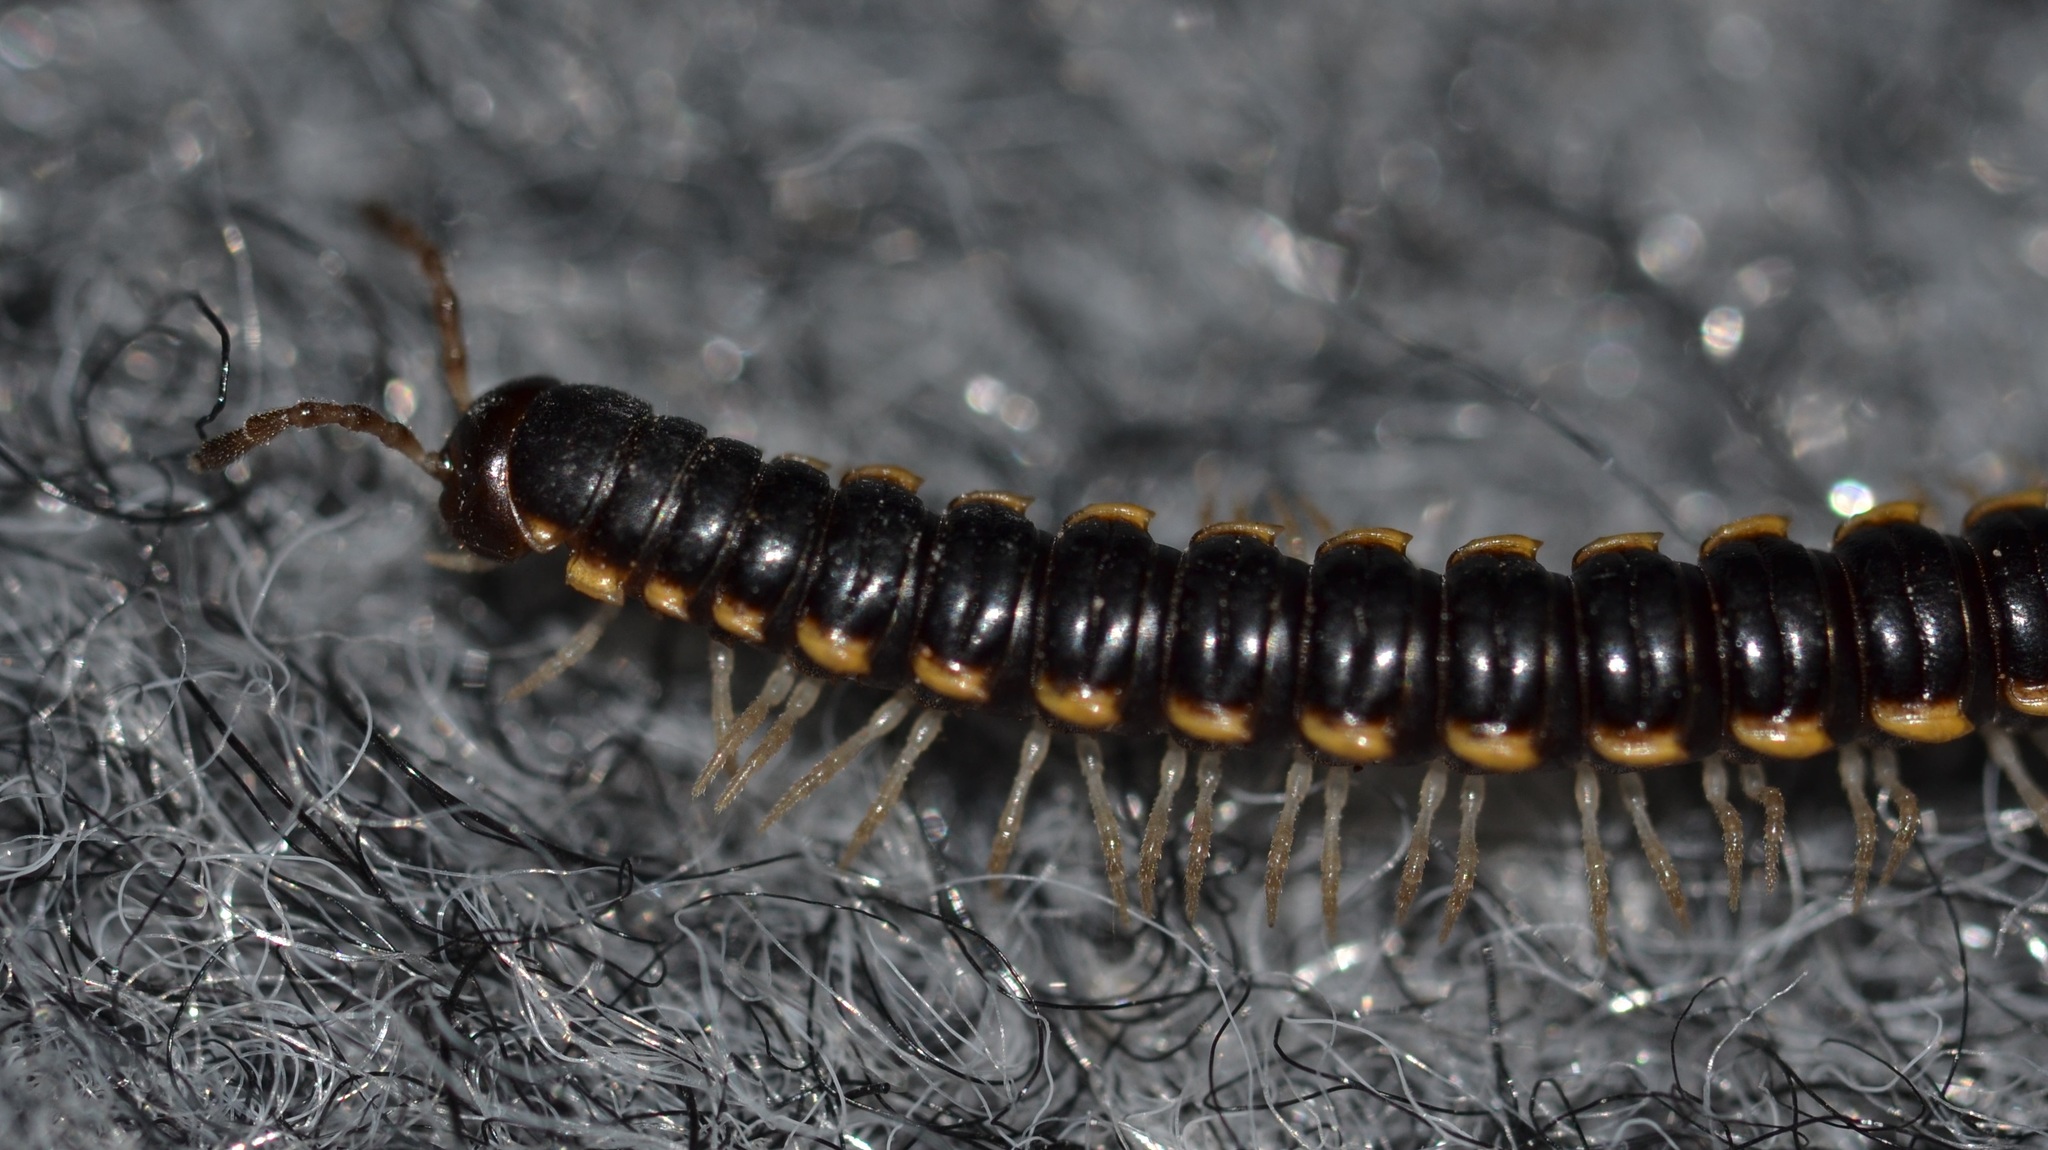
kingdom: Animalia
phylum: Arthropoda
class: Diplopoda
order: Polydesmida
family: Paradoxosomatidae
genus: Orthomorpha
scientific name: Orthomorpha coarctata
